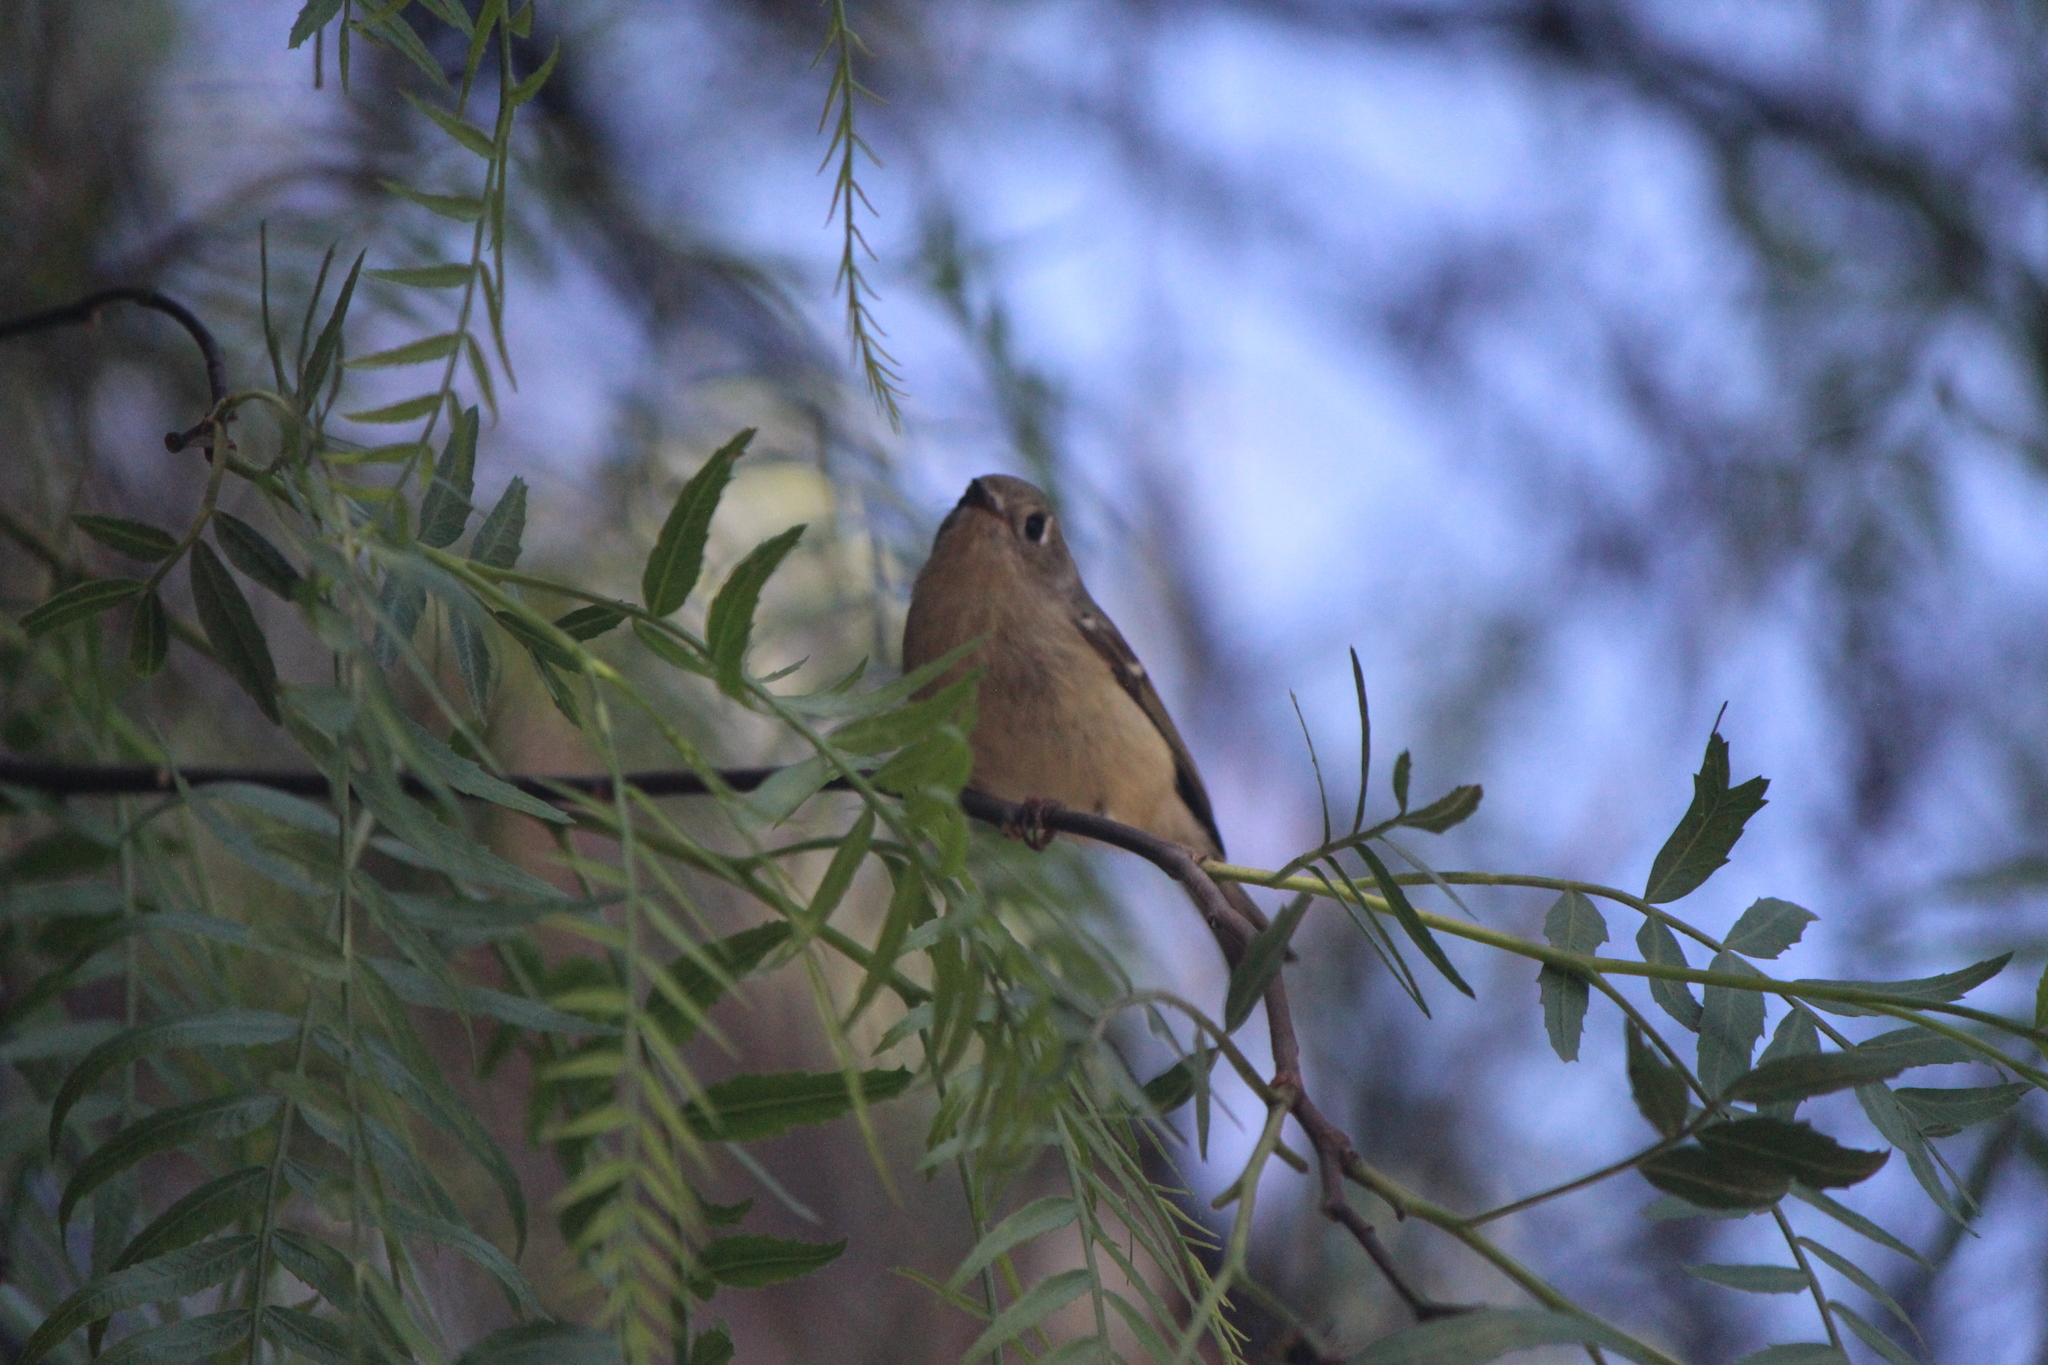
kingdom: Animalia
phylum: Chordata
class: Aves
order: Passeriformes
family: Regulidae
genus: Regulus
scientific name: Regulus calendula
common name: Ruby-crowned kinglet
